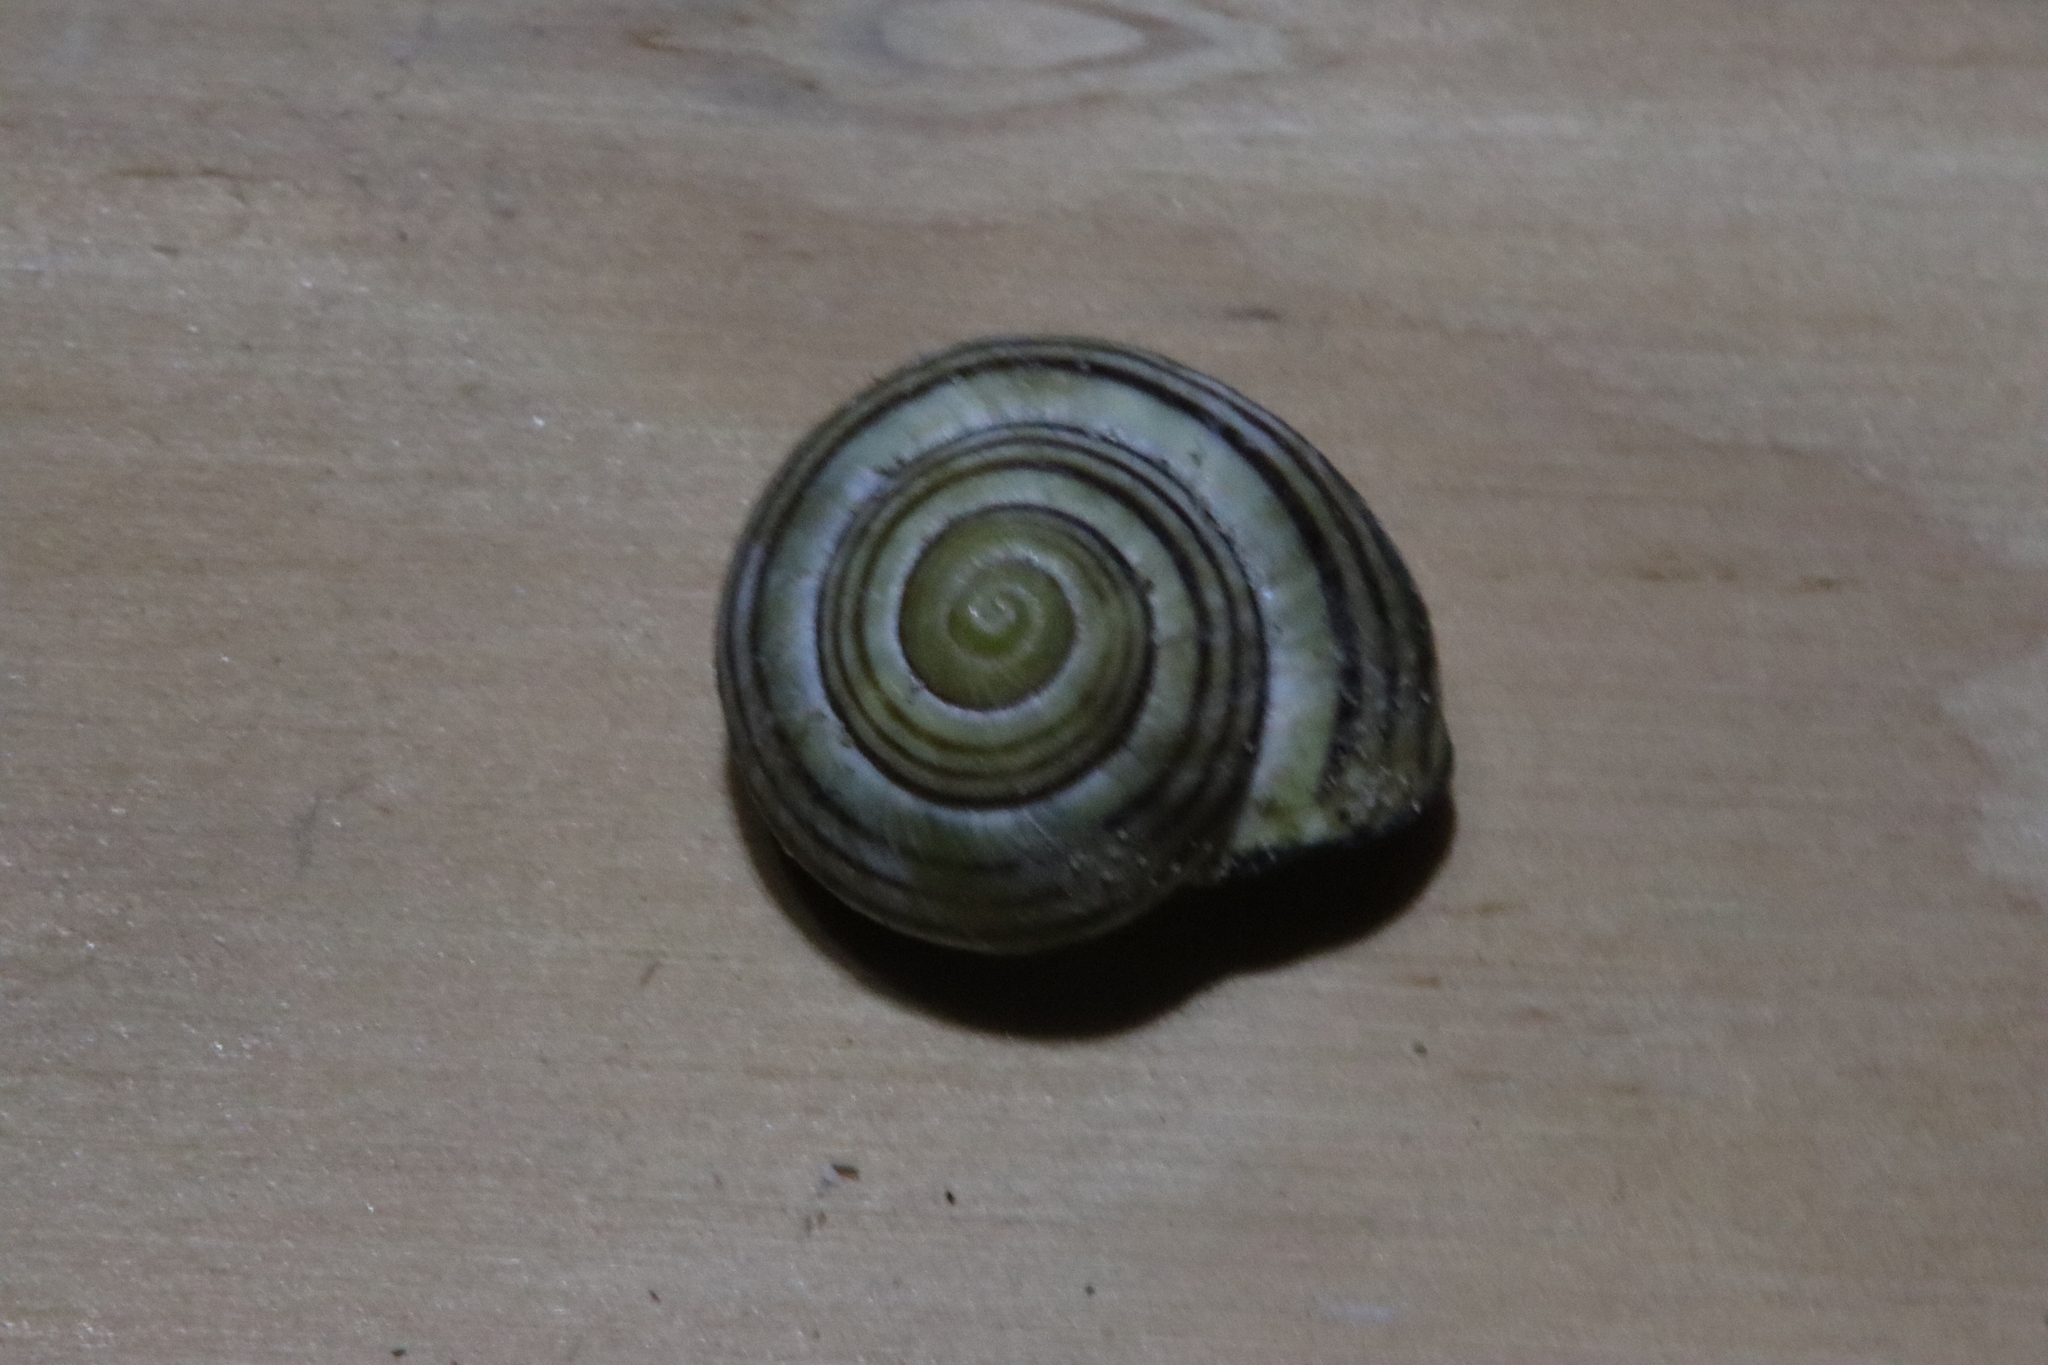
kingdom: Animalia
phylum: Mollusca
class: Gastropoda
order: Stylommatophora
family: Helicidae
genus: Cepaea
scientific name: Cepaea nemoralis
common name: Grovesnail
